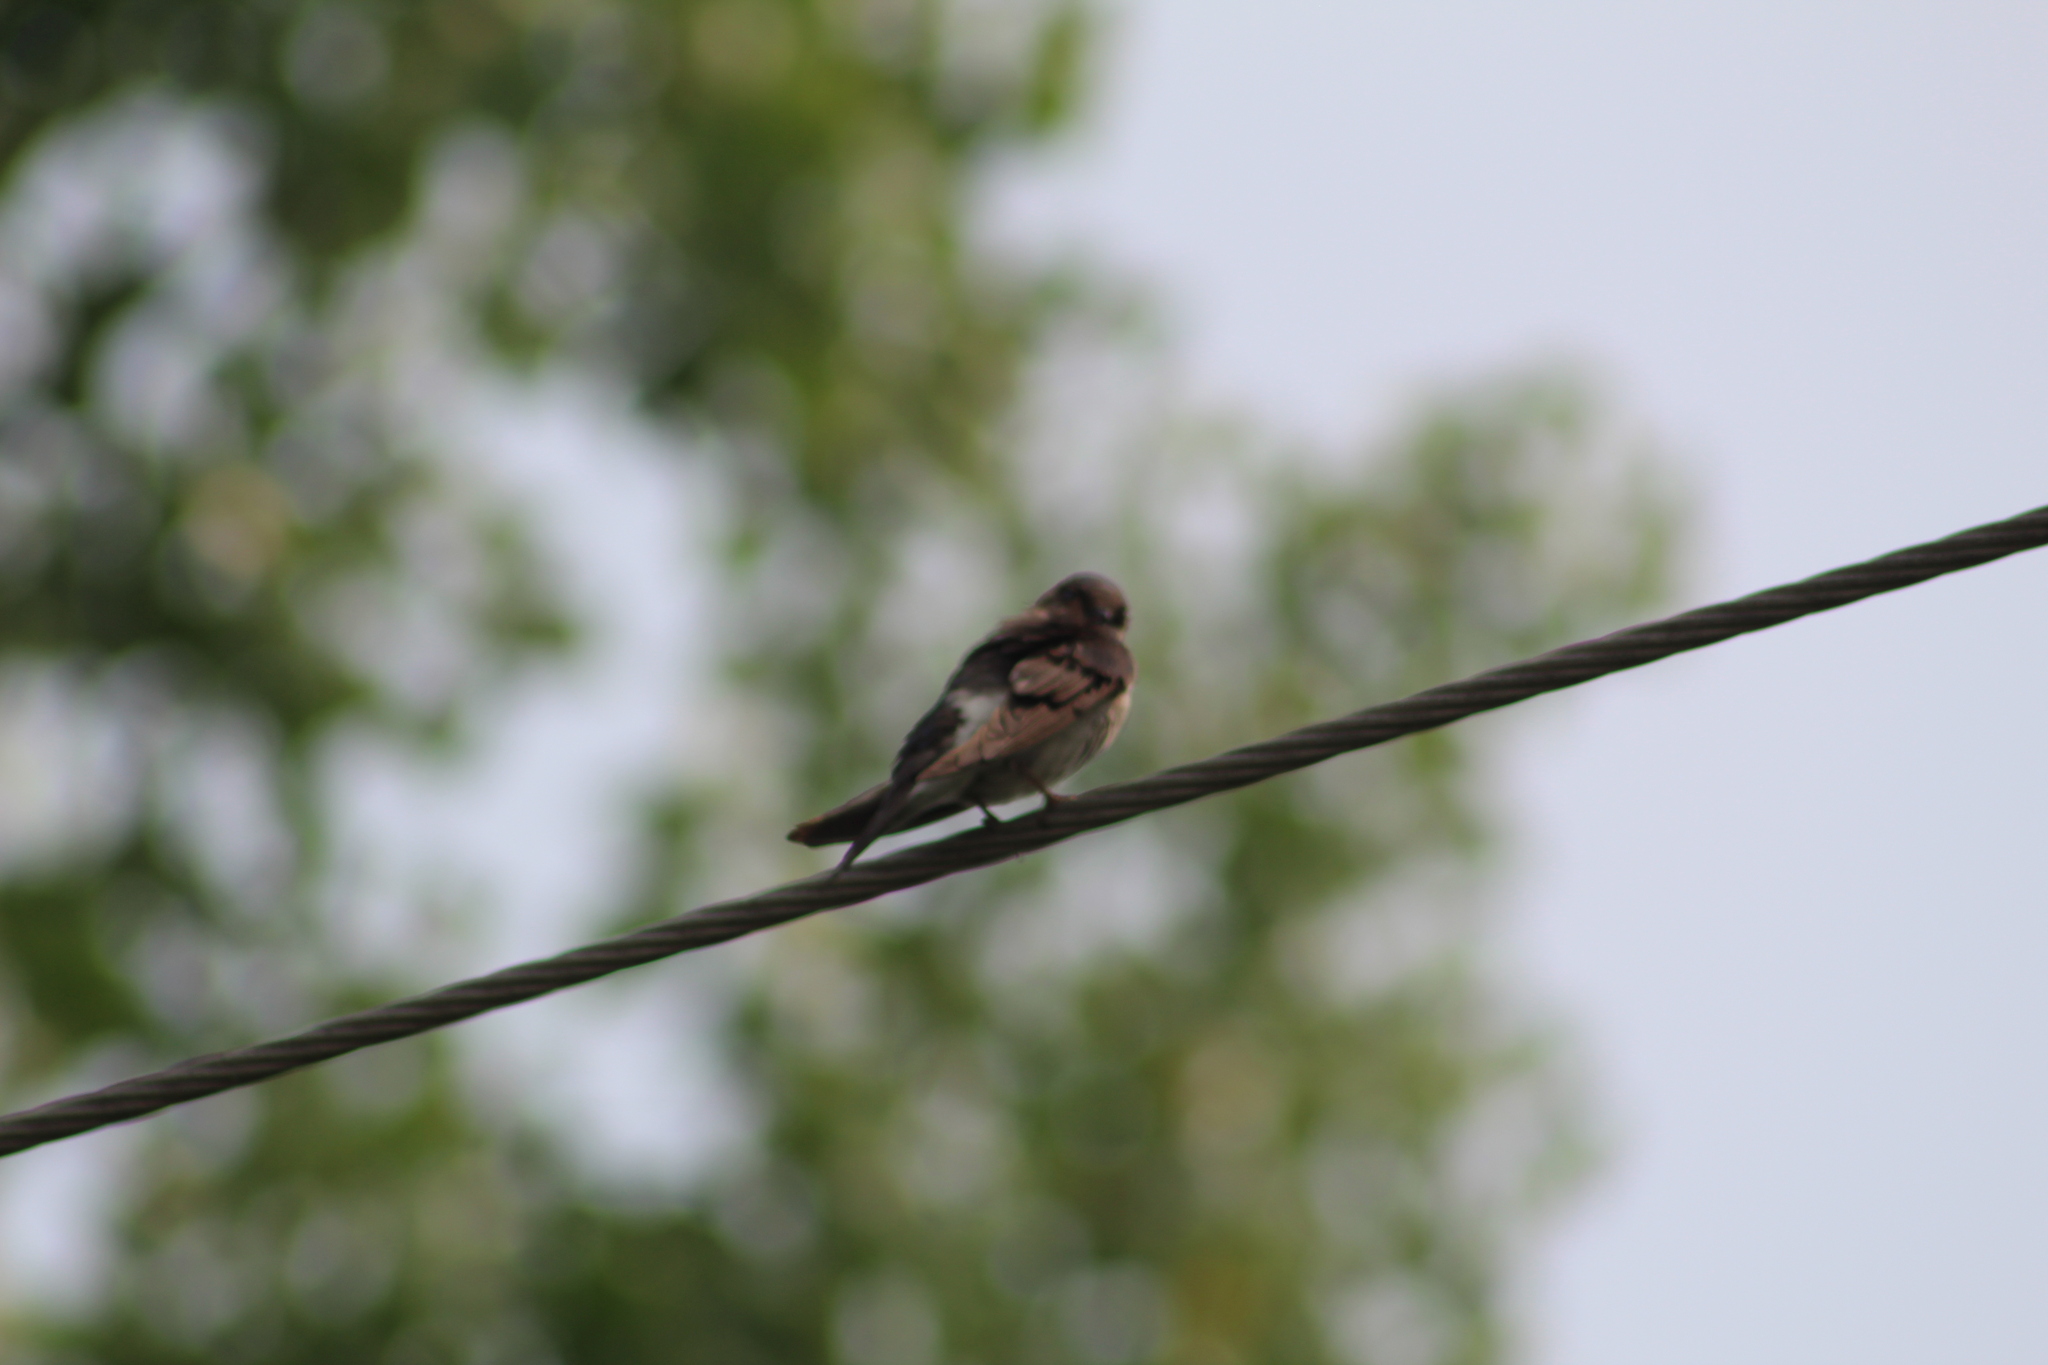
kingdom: Animalia
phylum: Chordata
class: Aves
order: Passeriformes
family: Hirundinidae
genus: Tachycineta
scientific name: Tachycineta bicolor
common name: Tree swallow
